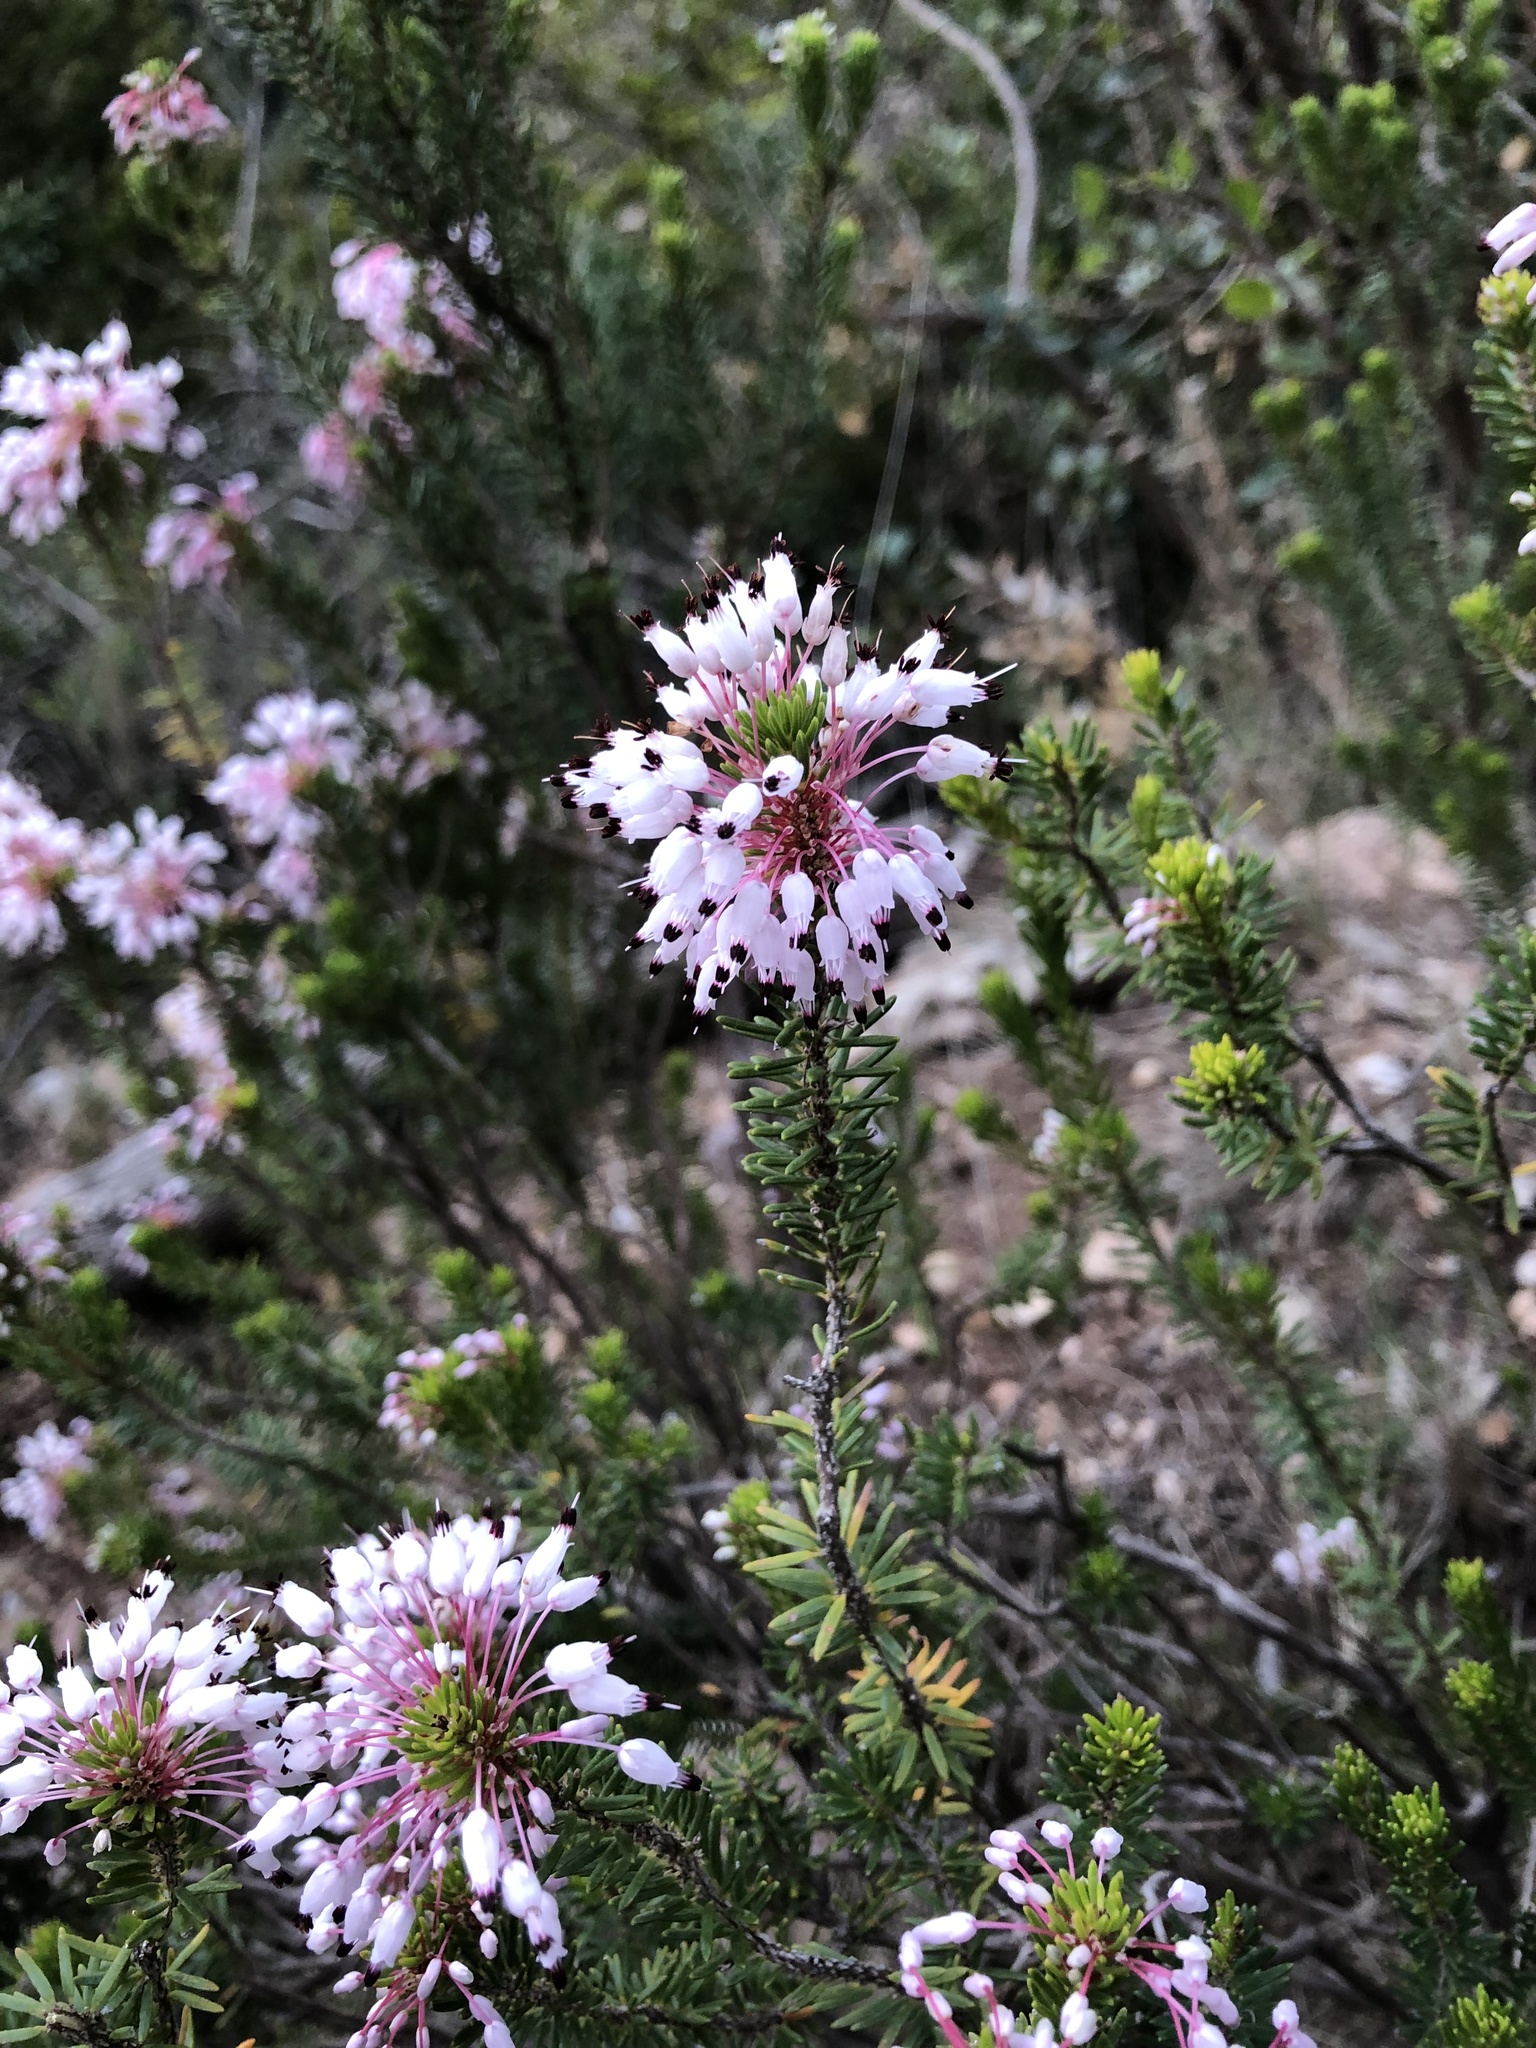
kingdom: Plantae
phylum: Tracheophyta
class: Magnoliopsida
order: Ericales
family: Ericaceae
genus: Erica
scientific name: Erica multiflora
